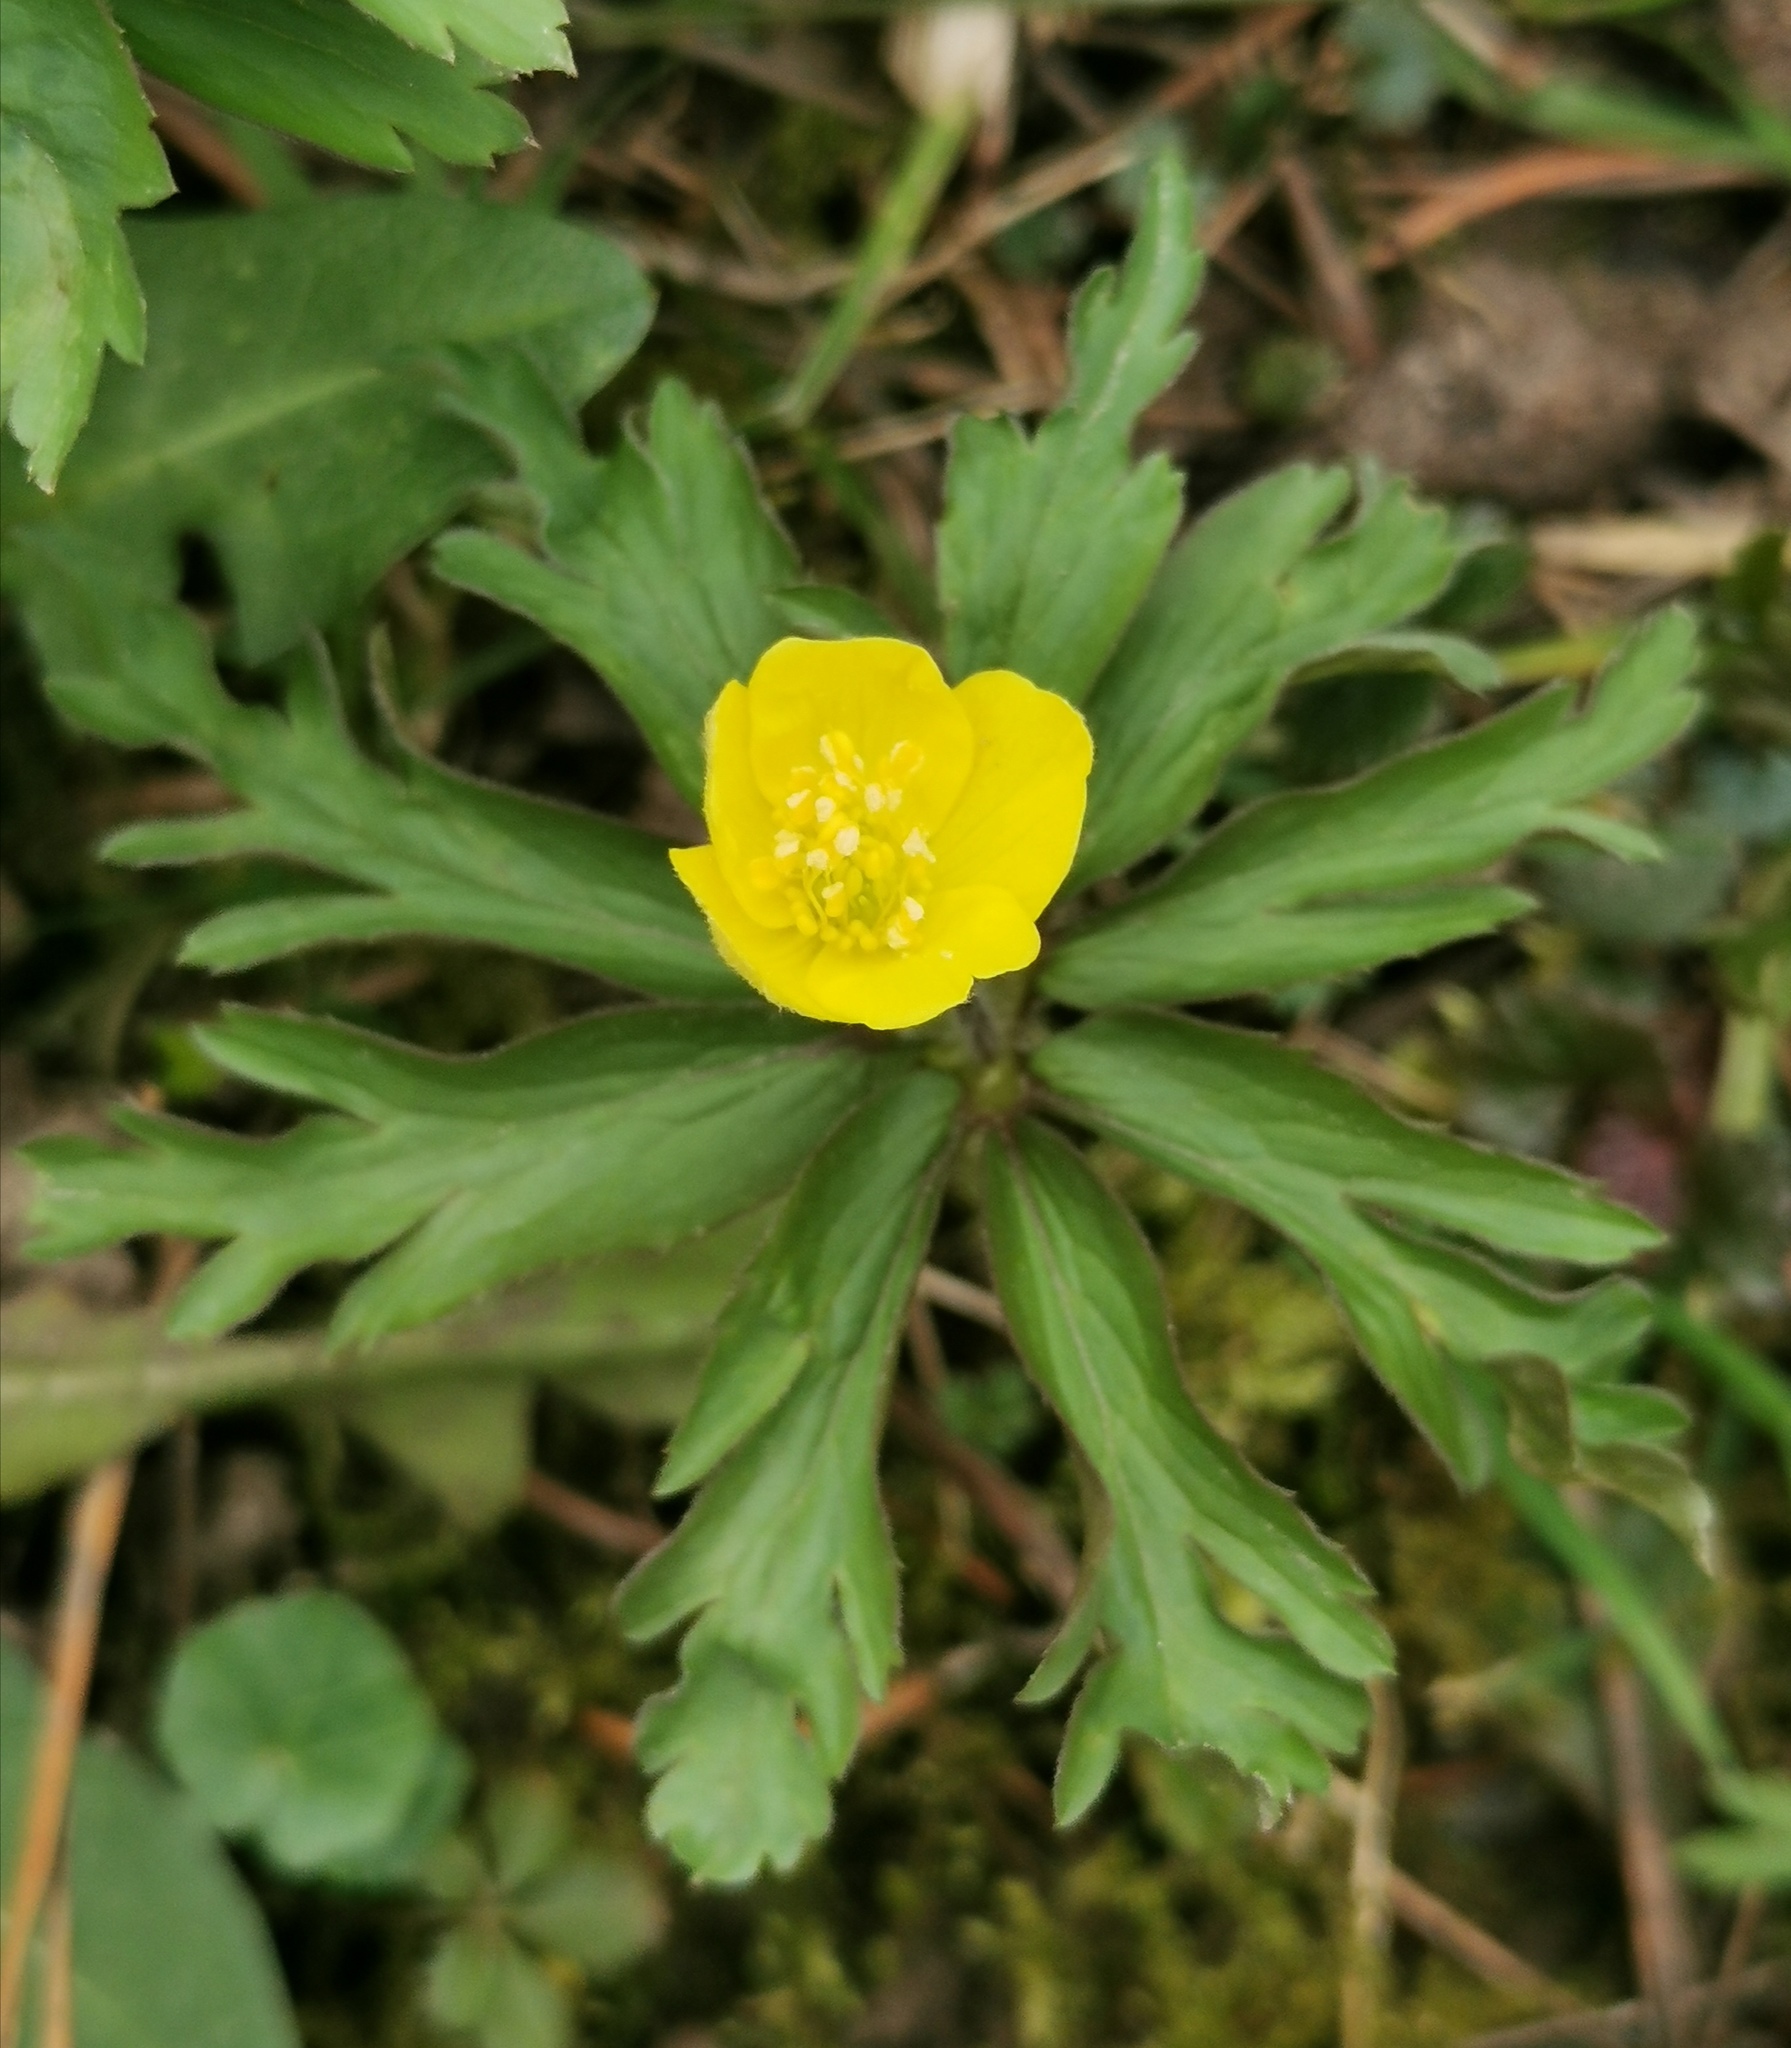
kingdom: Plantae
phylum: Tracheophyta
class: Magnoliopsida
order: Ranunculales
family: Ranunculaceae
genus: Anemone
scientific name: Anemone ranunculoides
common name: Yellow anemone
